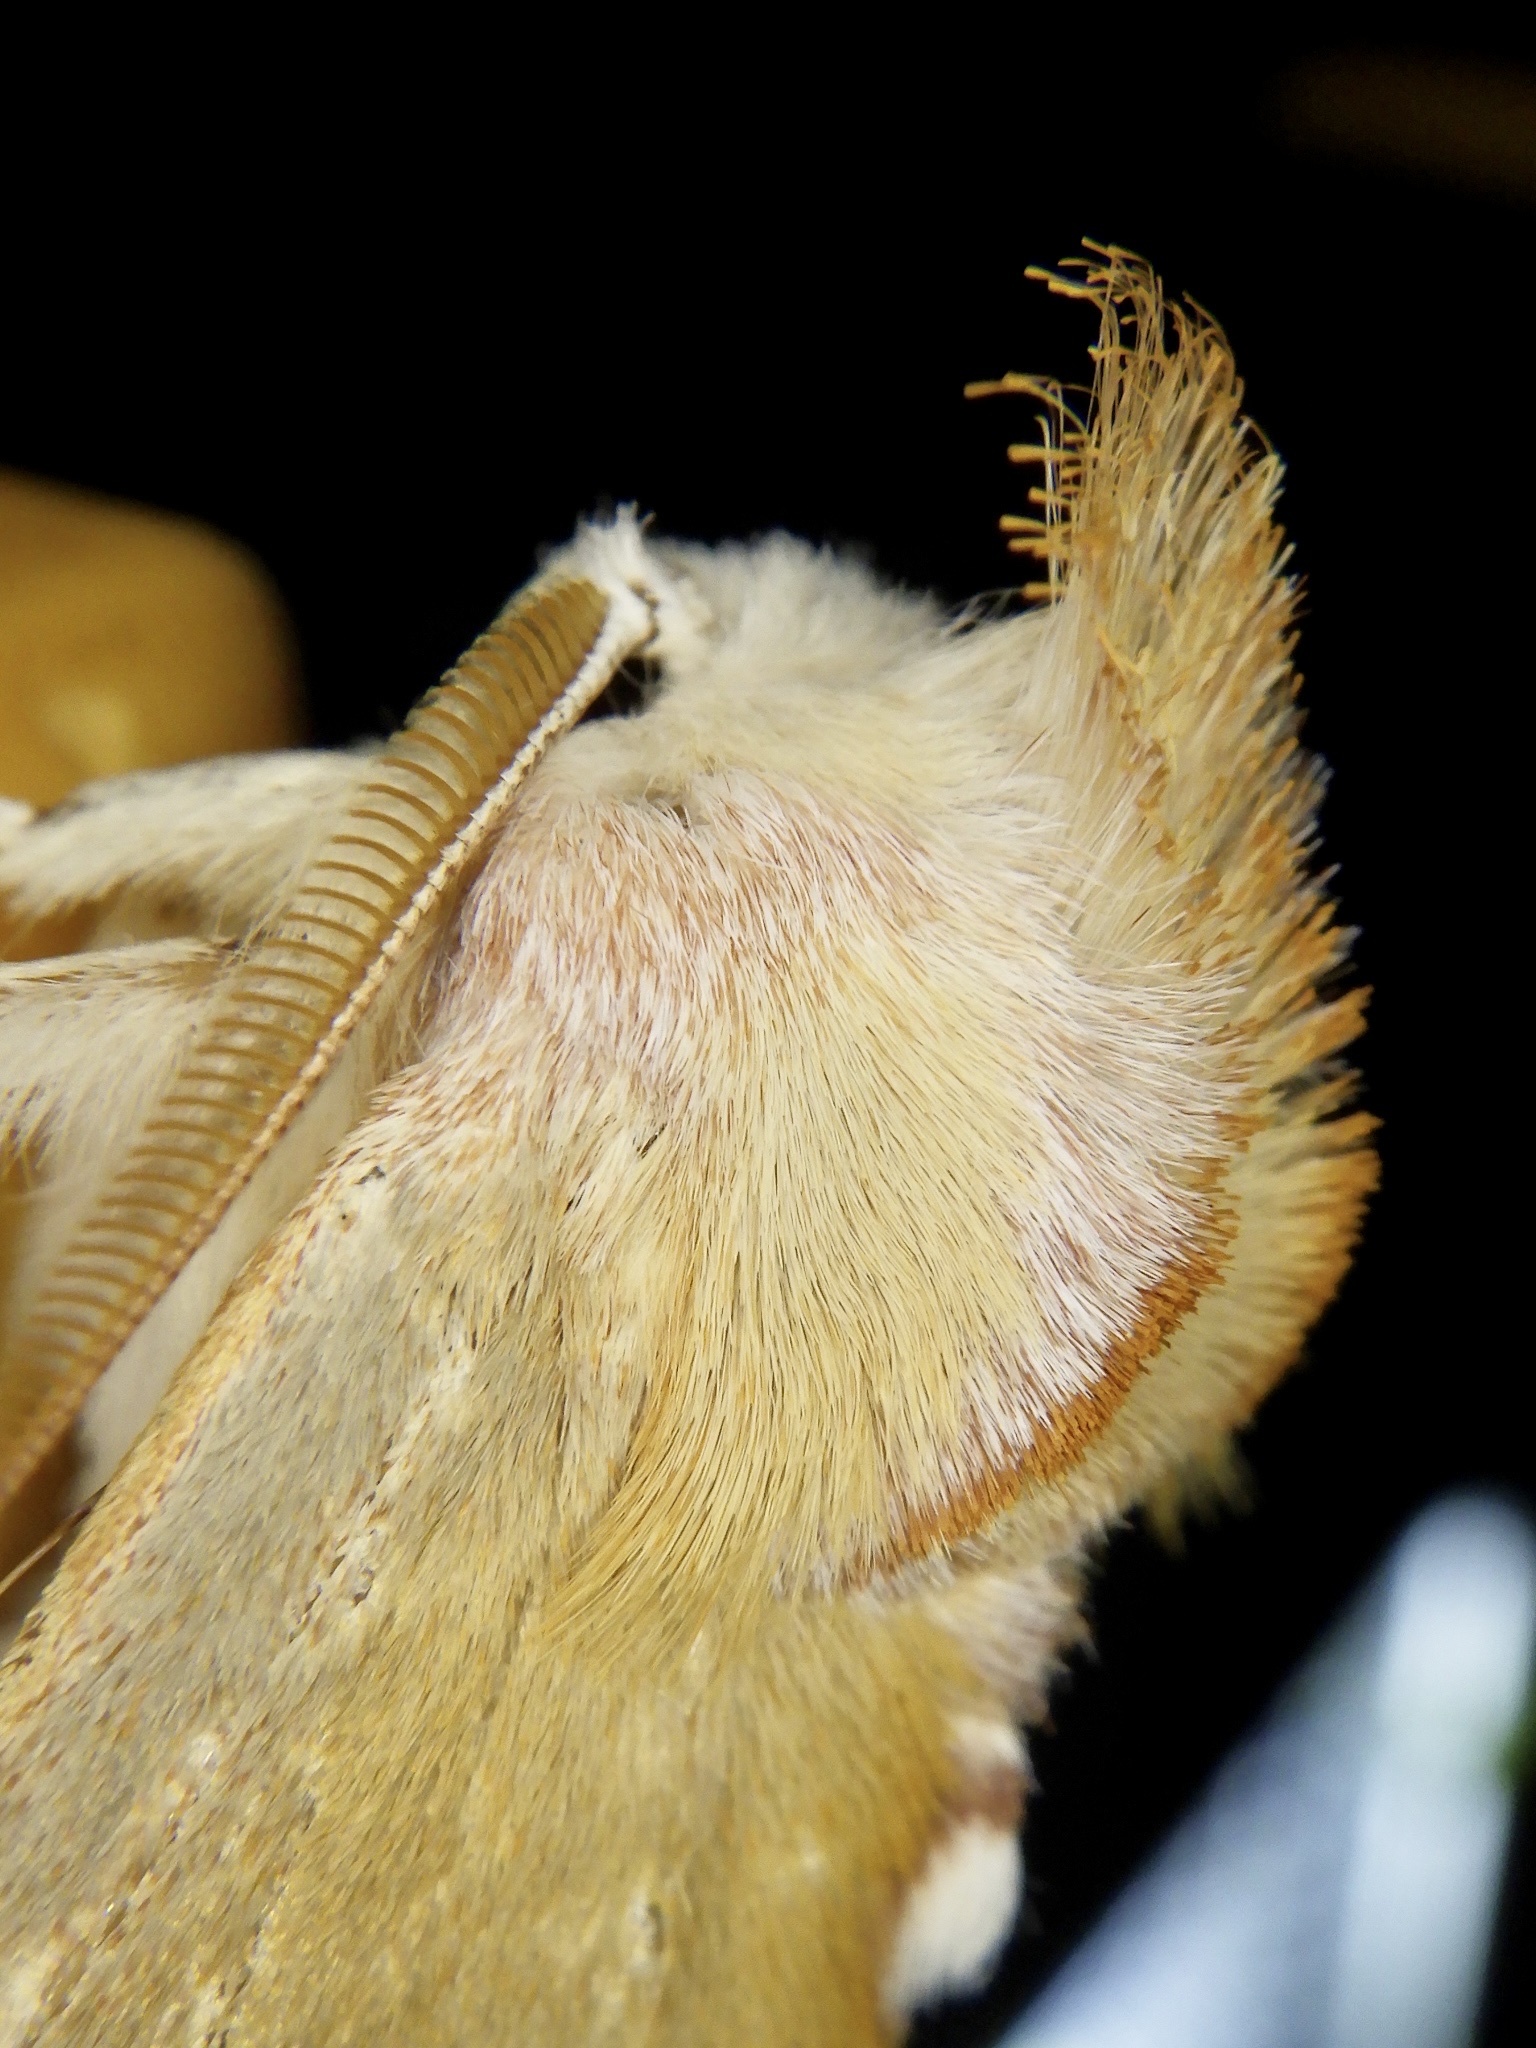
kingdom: Animalia
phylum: Arthropoda
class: Insecta
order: Lepidoptera
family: Notodontidae
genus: Euhampsonia
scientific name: Euhampsonia cristata
